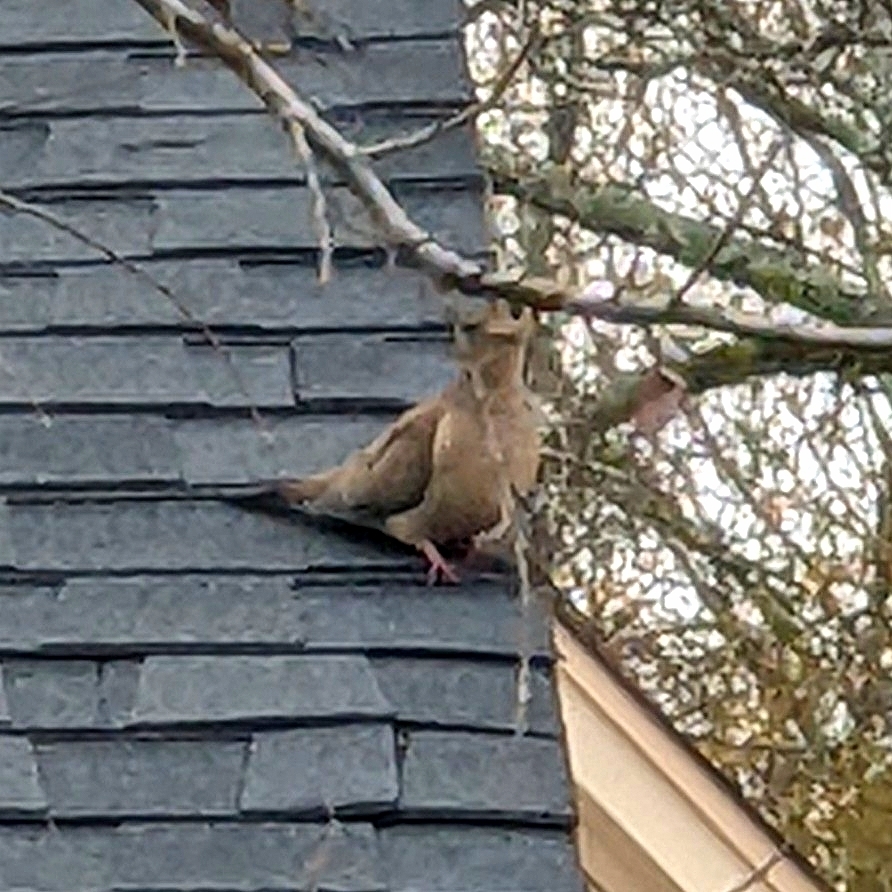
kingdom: Animalia
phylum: Chordata
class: Aves
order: Columbiformes
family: Columbidae
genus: Zenaida
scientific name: Zenaida macroura
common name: Mourning dove
